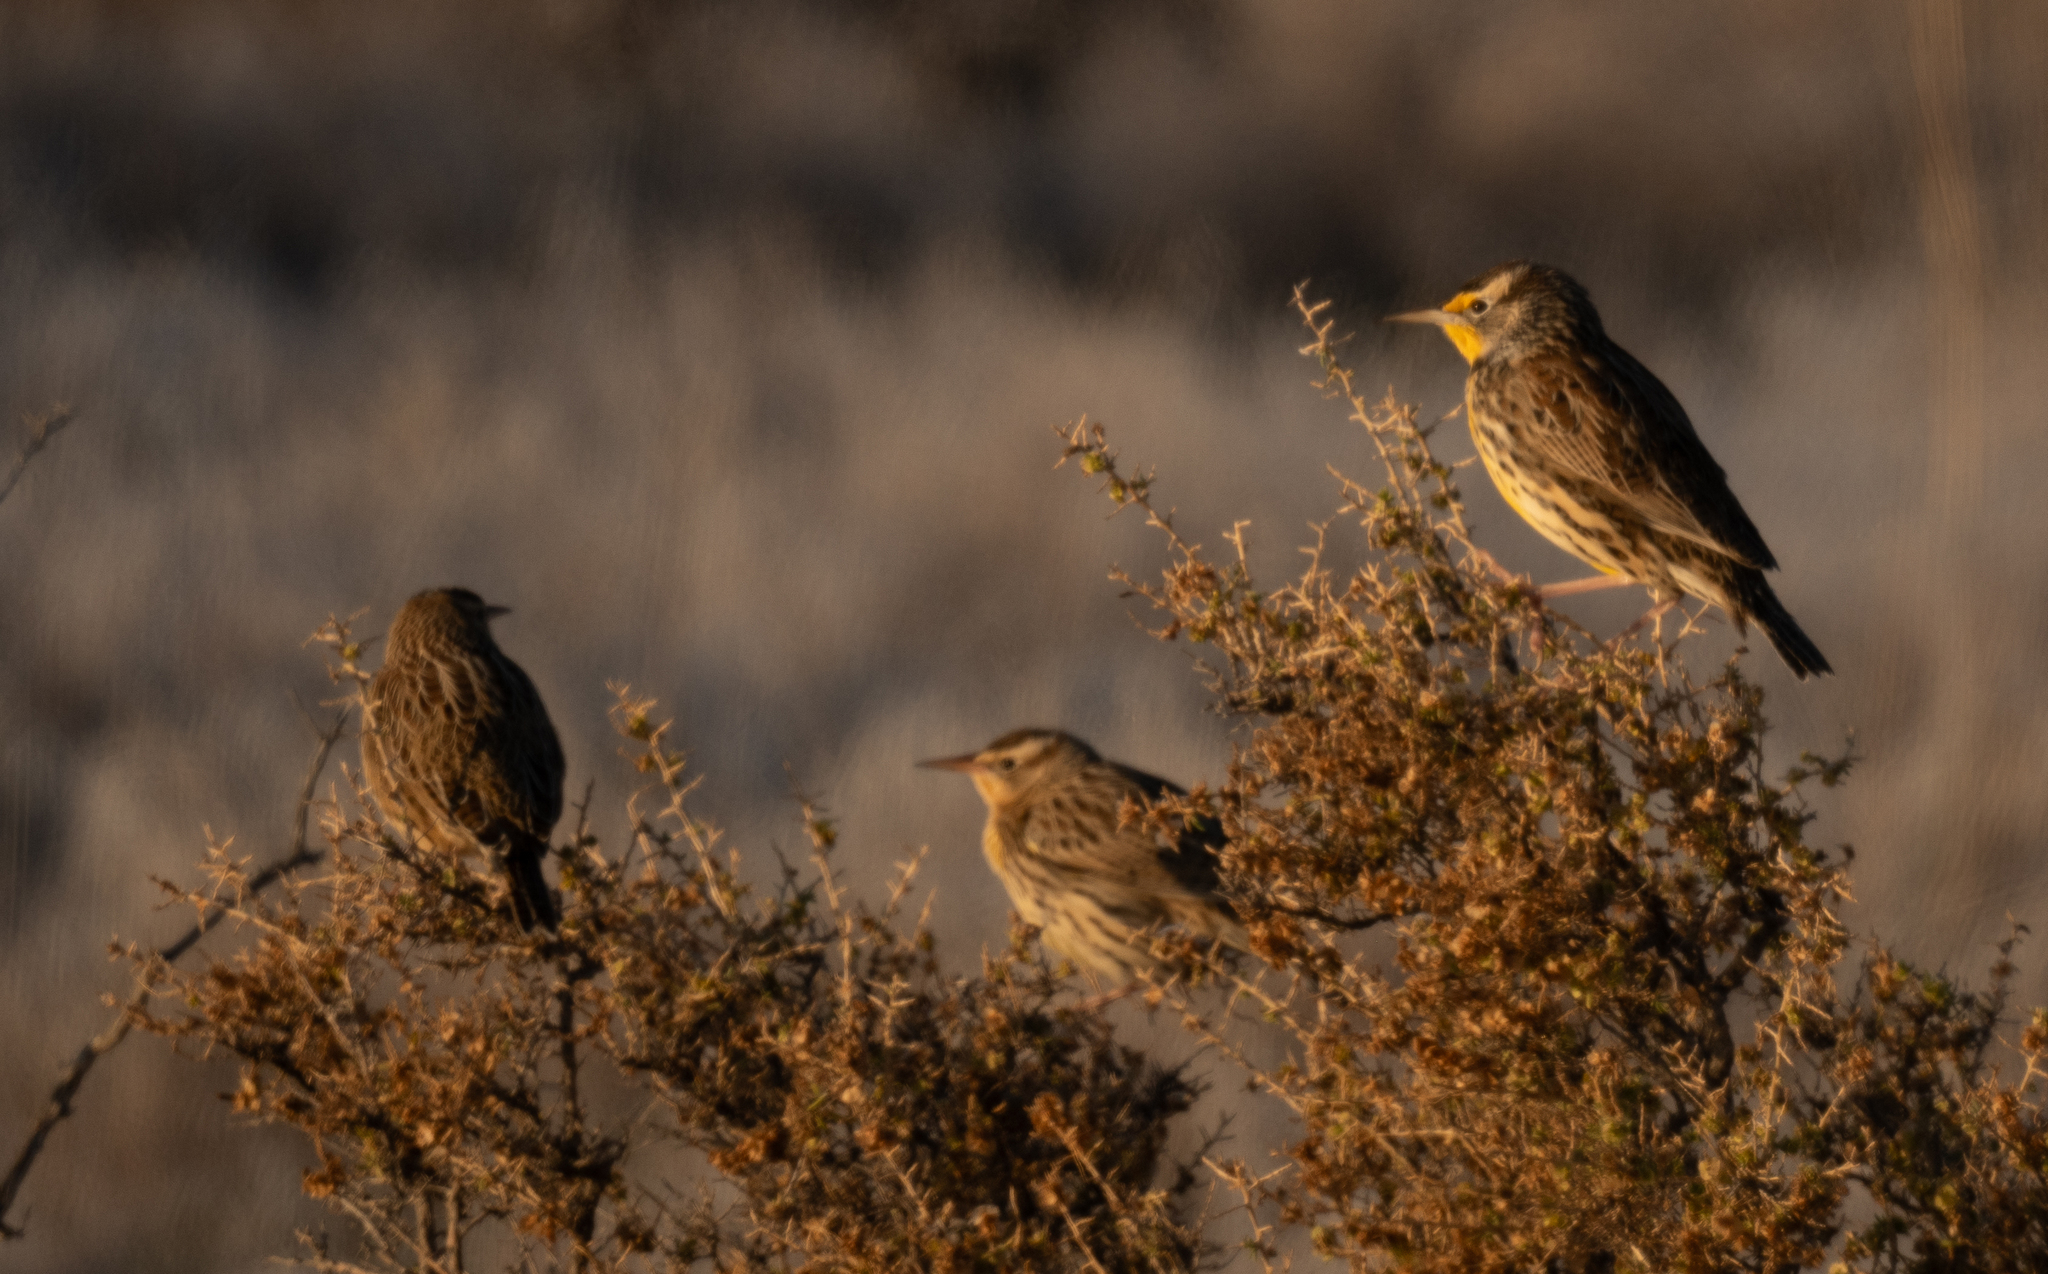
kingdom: Animalia
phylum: Chordata
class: Aves
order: Passeriformes
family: Icteridae
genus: Sturnella
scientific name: Sturnella neglecta
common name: Western meadowlark
